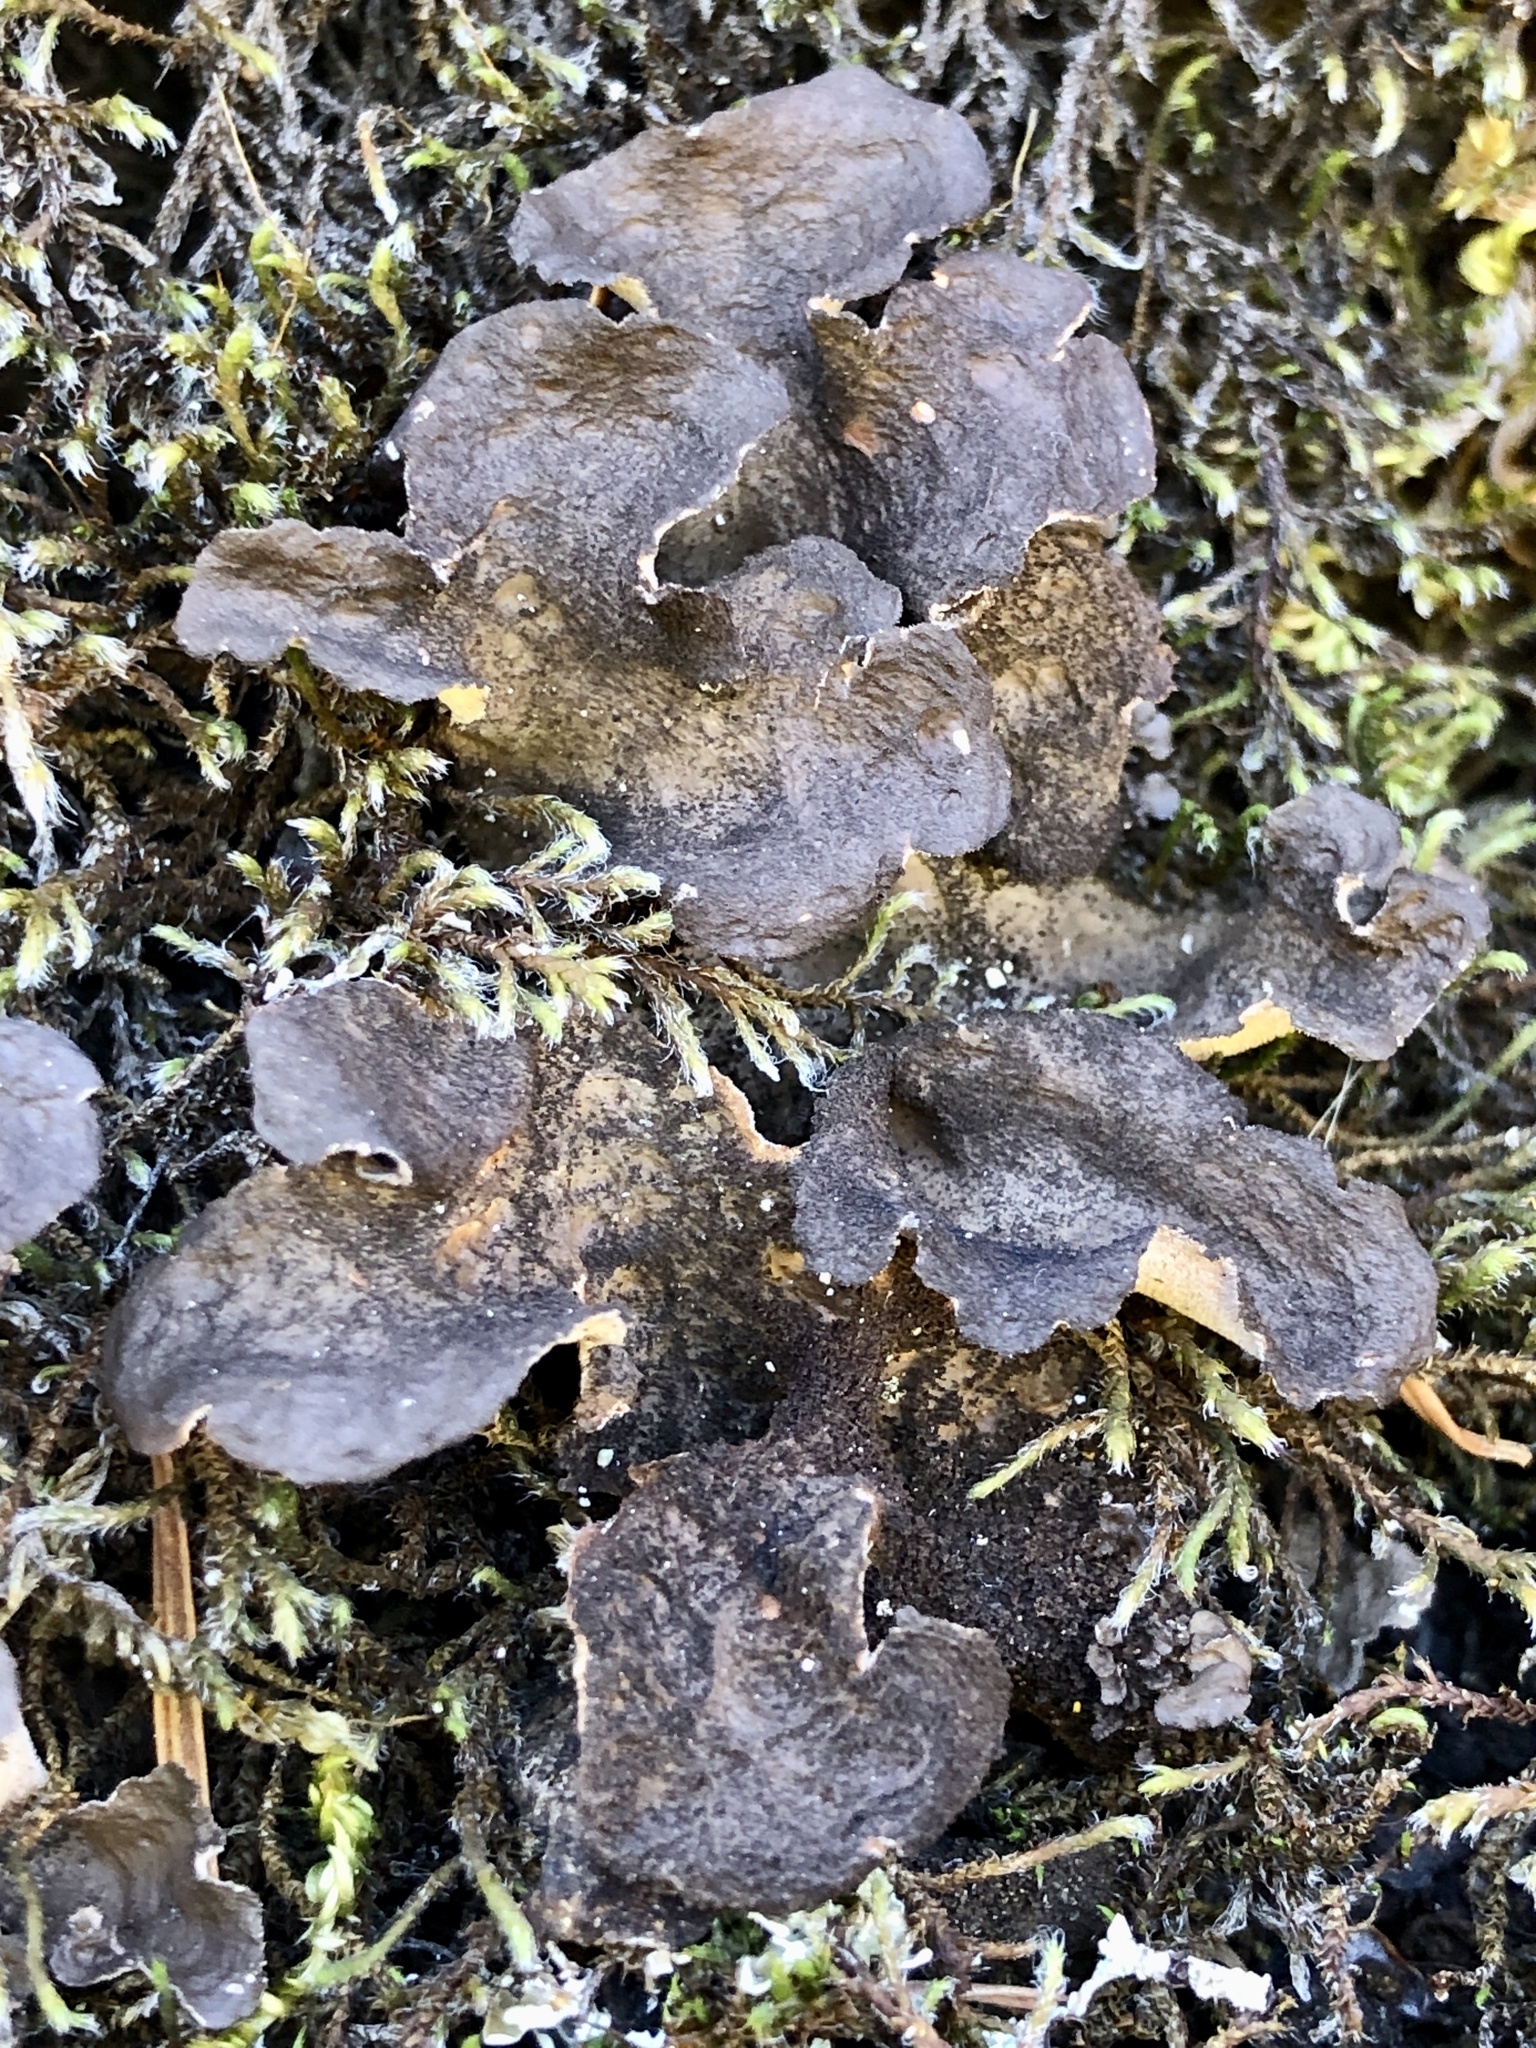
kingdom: Fungi
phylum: Ascomycota
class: Lecanoromycetes
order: Peltigerales
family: Lobariaceae
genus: Sticta
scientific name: Sticta
